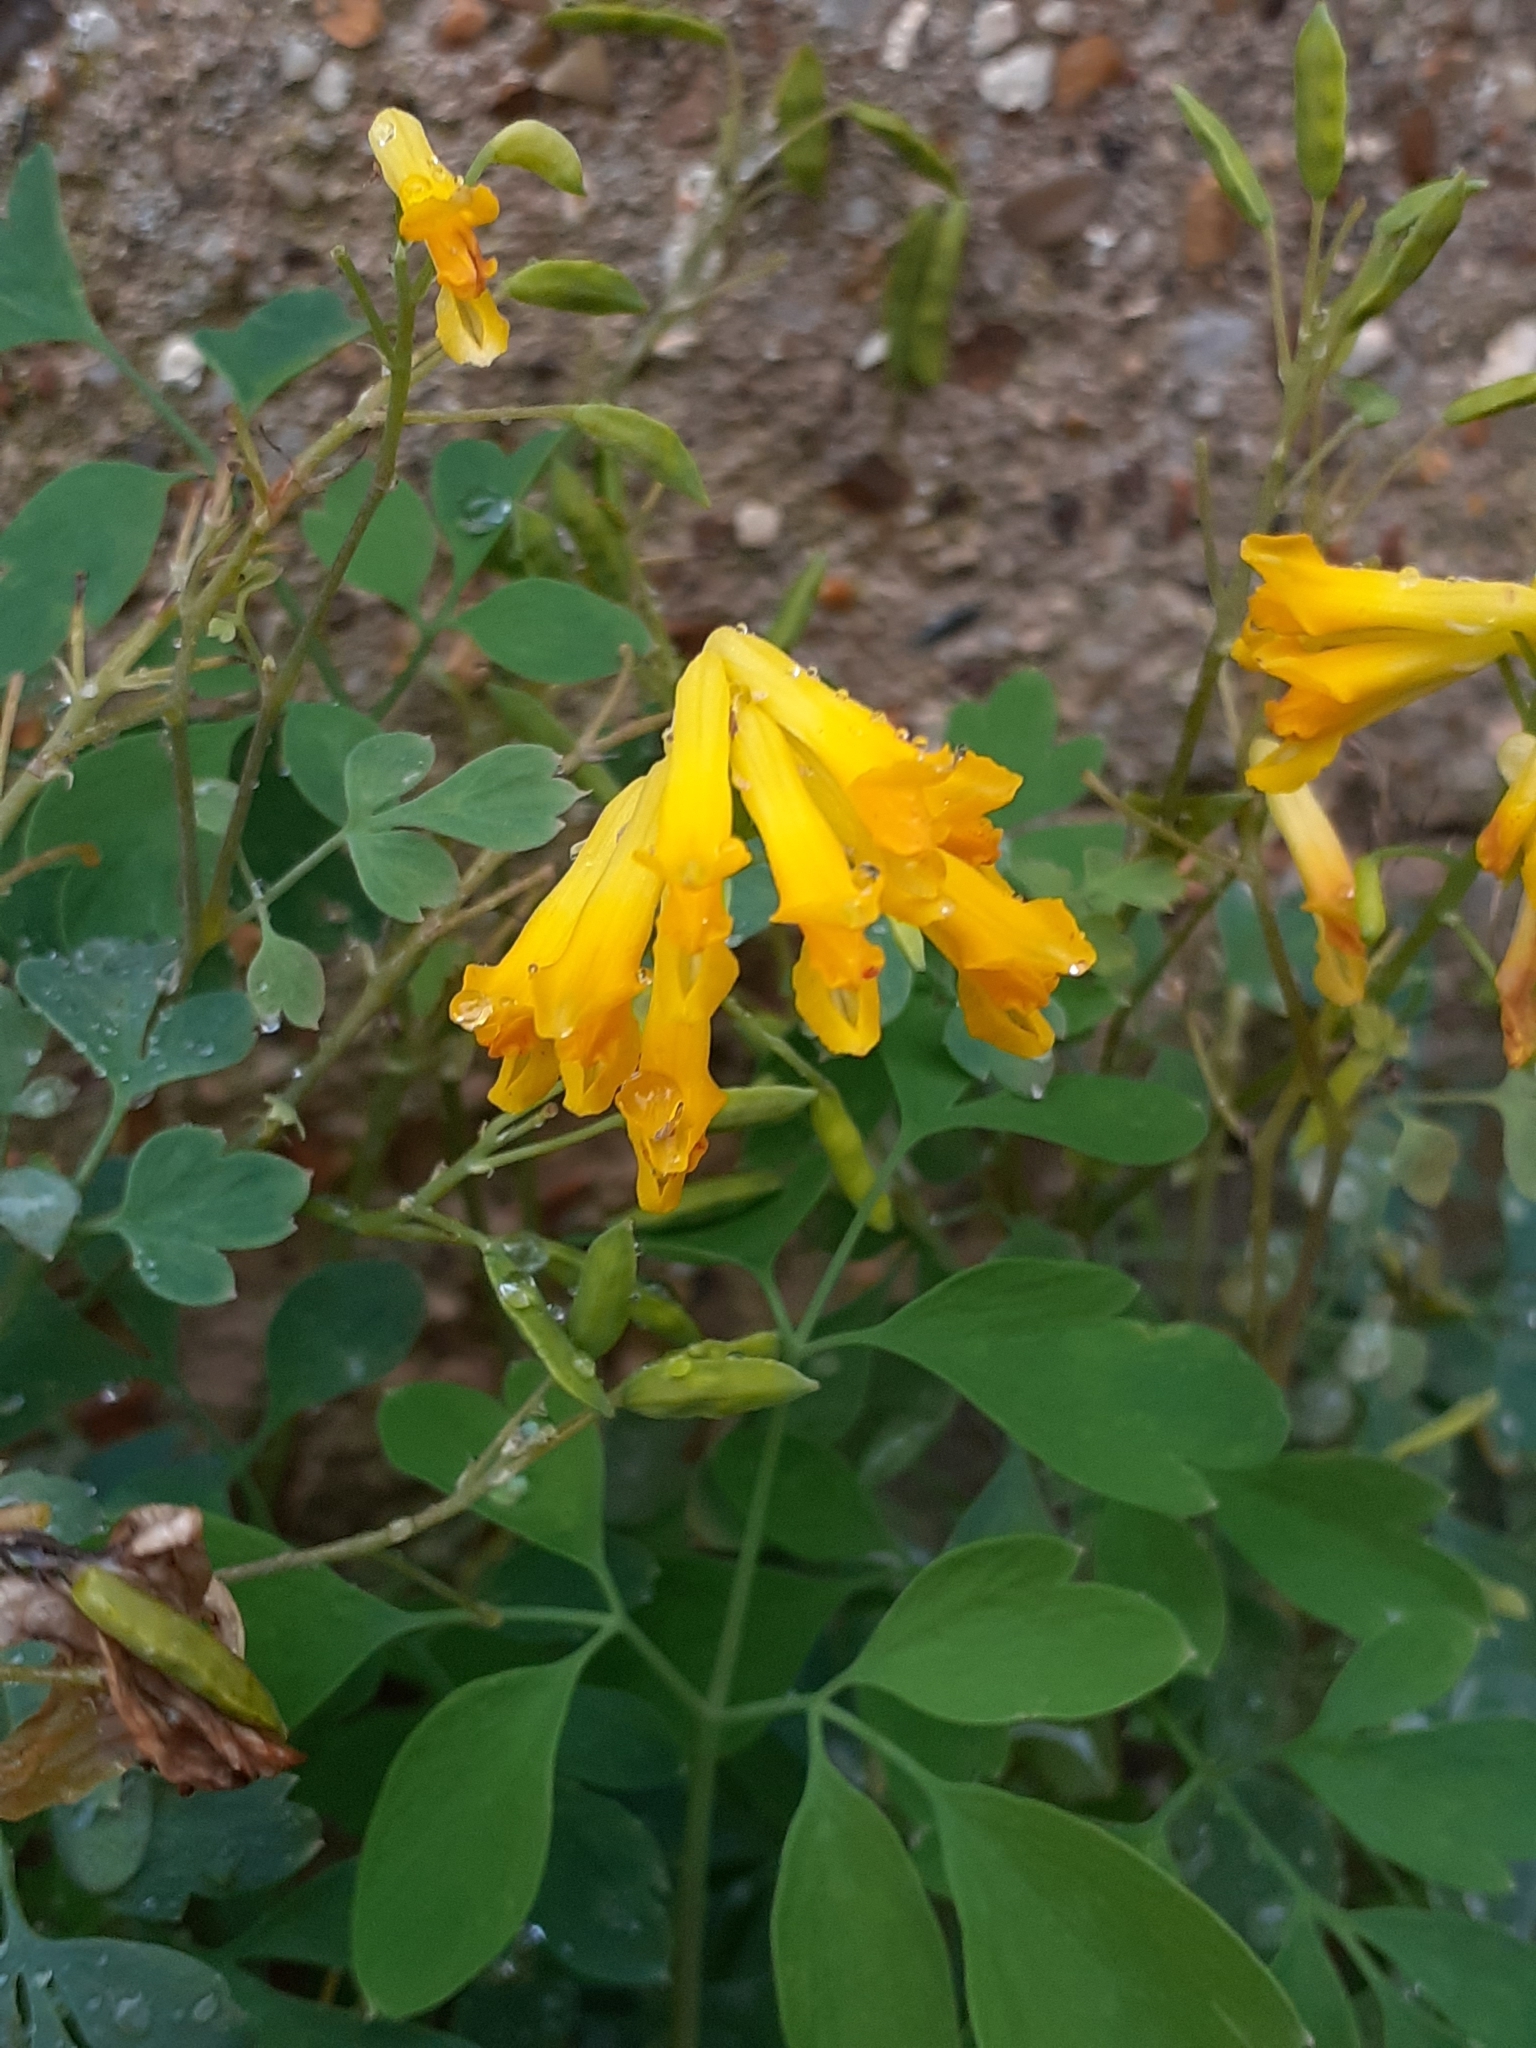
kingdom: Plantae
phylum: Tracheophyta
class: Magnoliopsida
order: Ranunculales
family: Papaveraceae
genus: Pseudofumaria
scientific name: Pseudofumaria lutea
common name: Yellow corydalis
